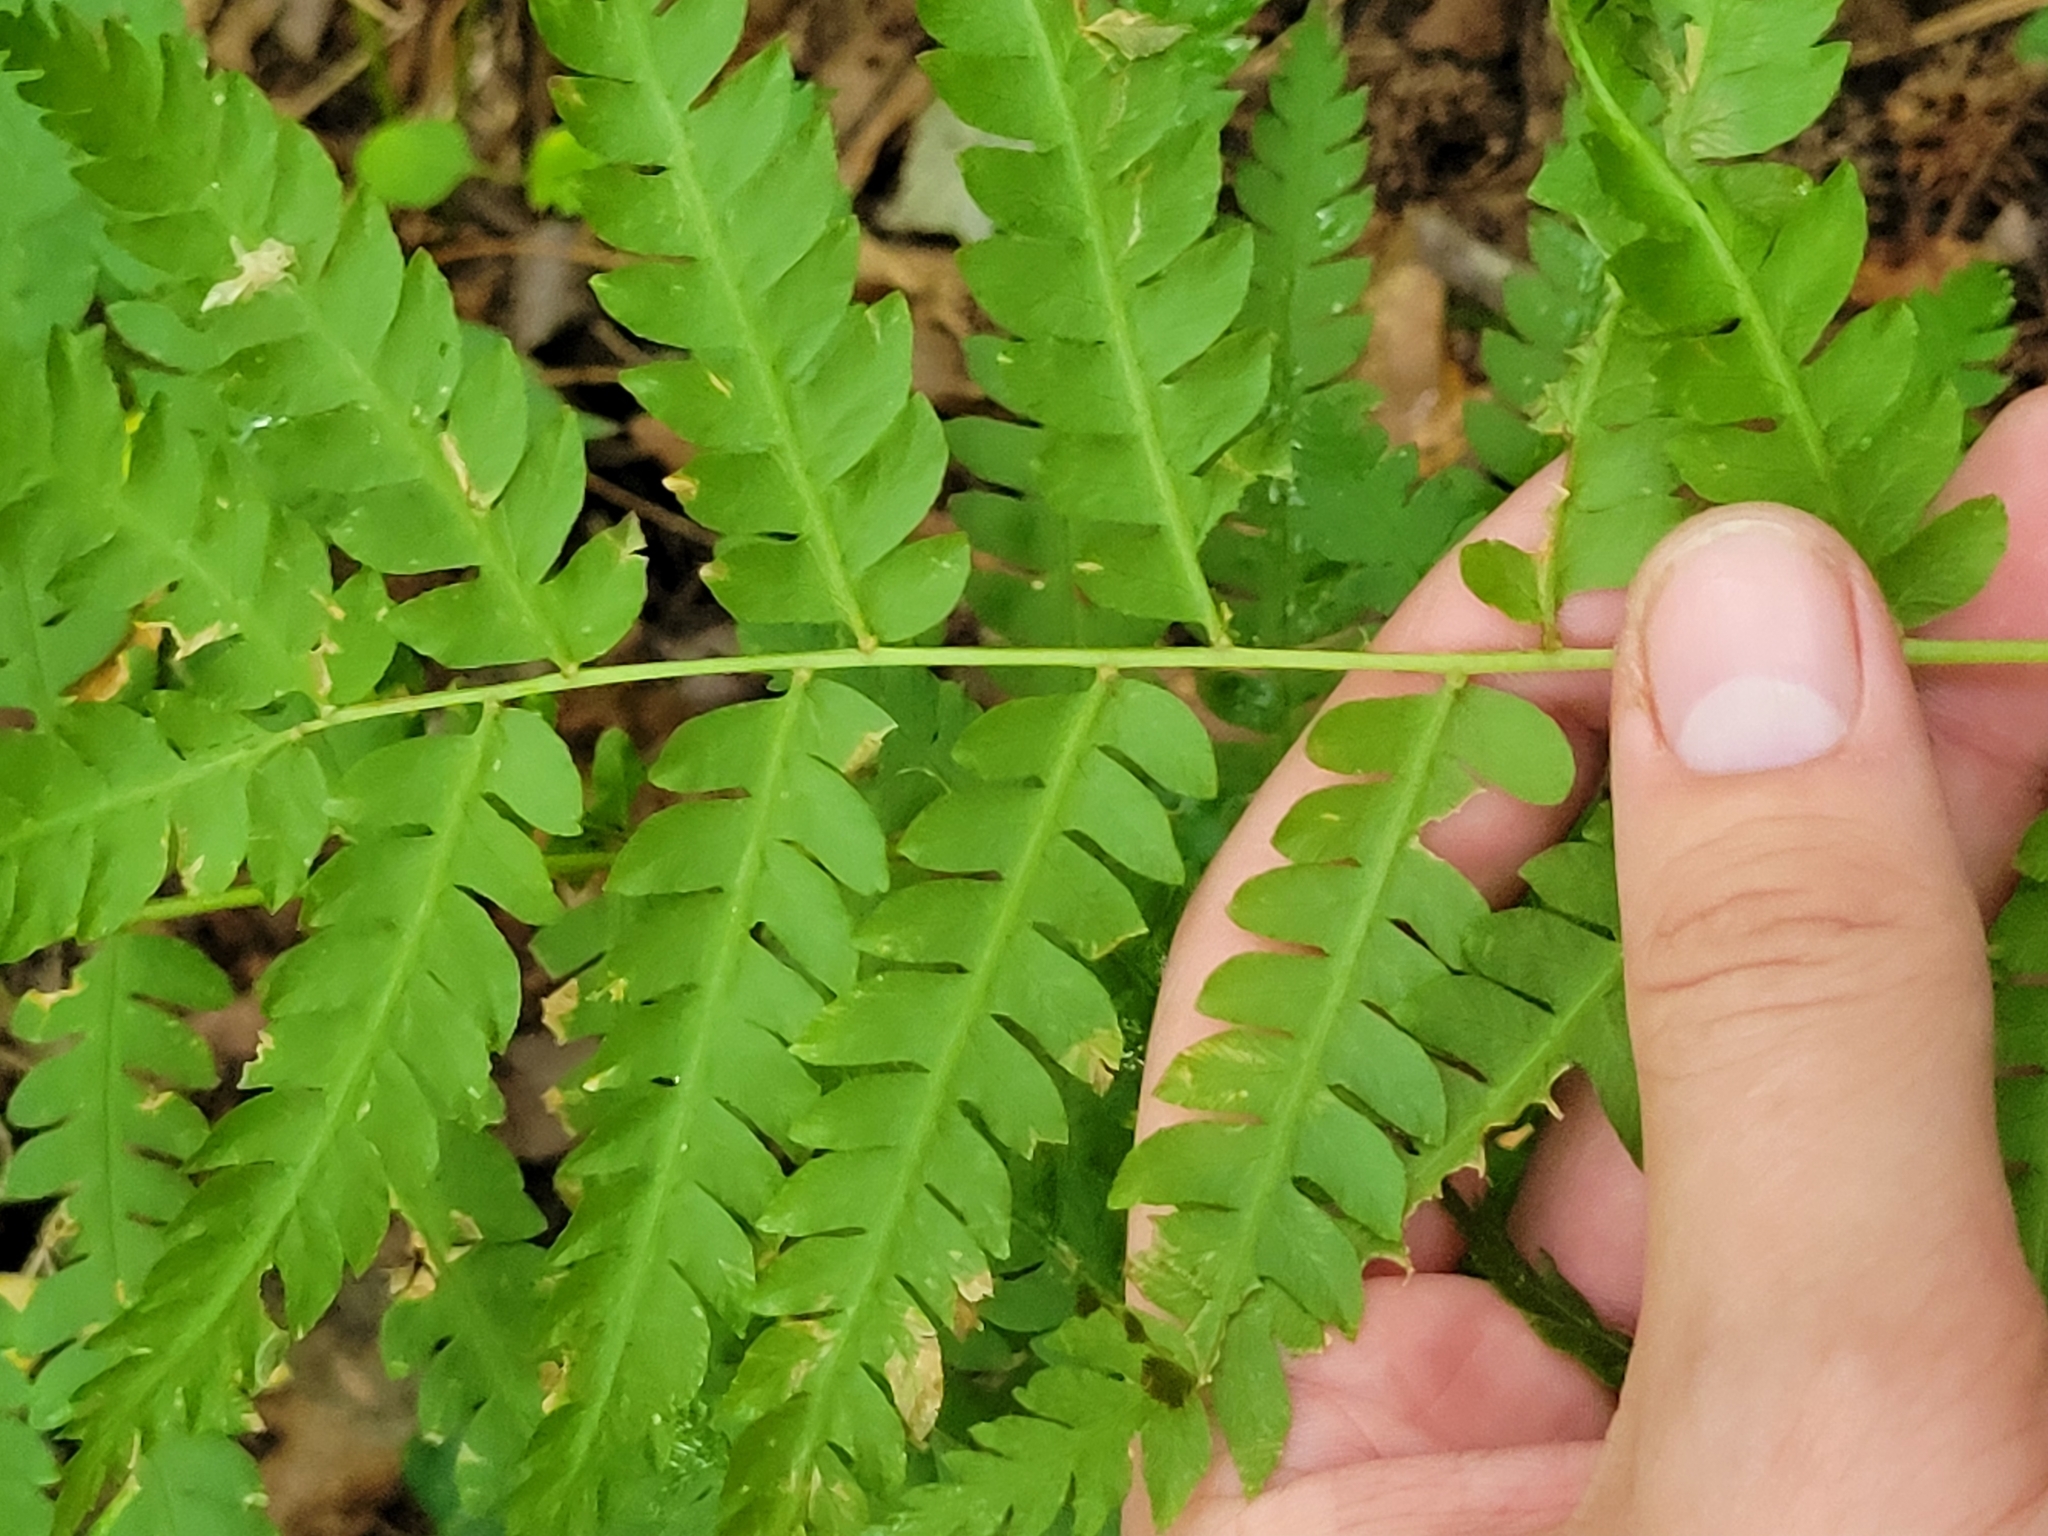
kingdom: Plantae
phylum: Tracheophyta
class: Polypodiopsida
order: Osmundales
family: Osmundaceae
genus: Osmundastrum
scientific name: Osmundastrum cinnamomeum
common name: Cinnamon fern
